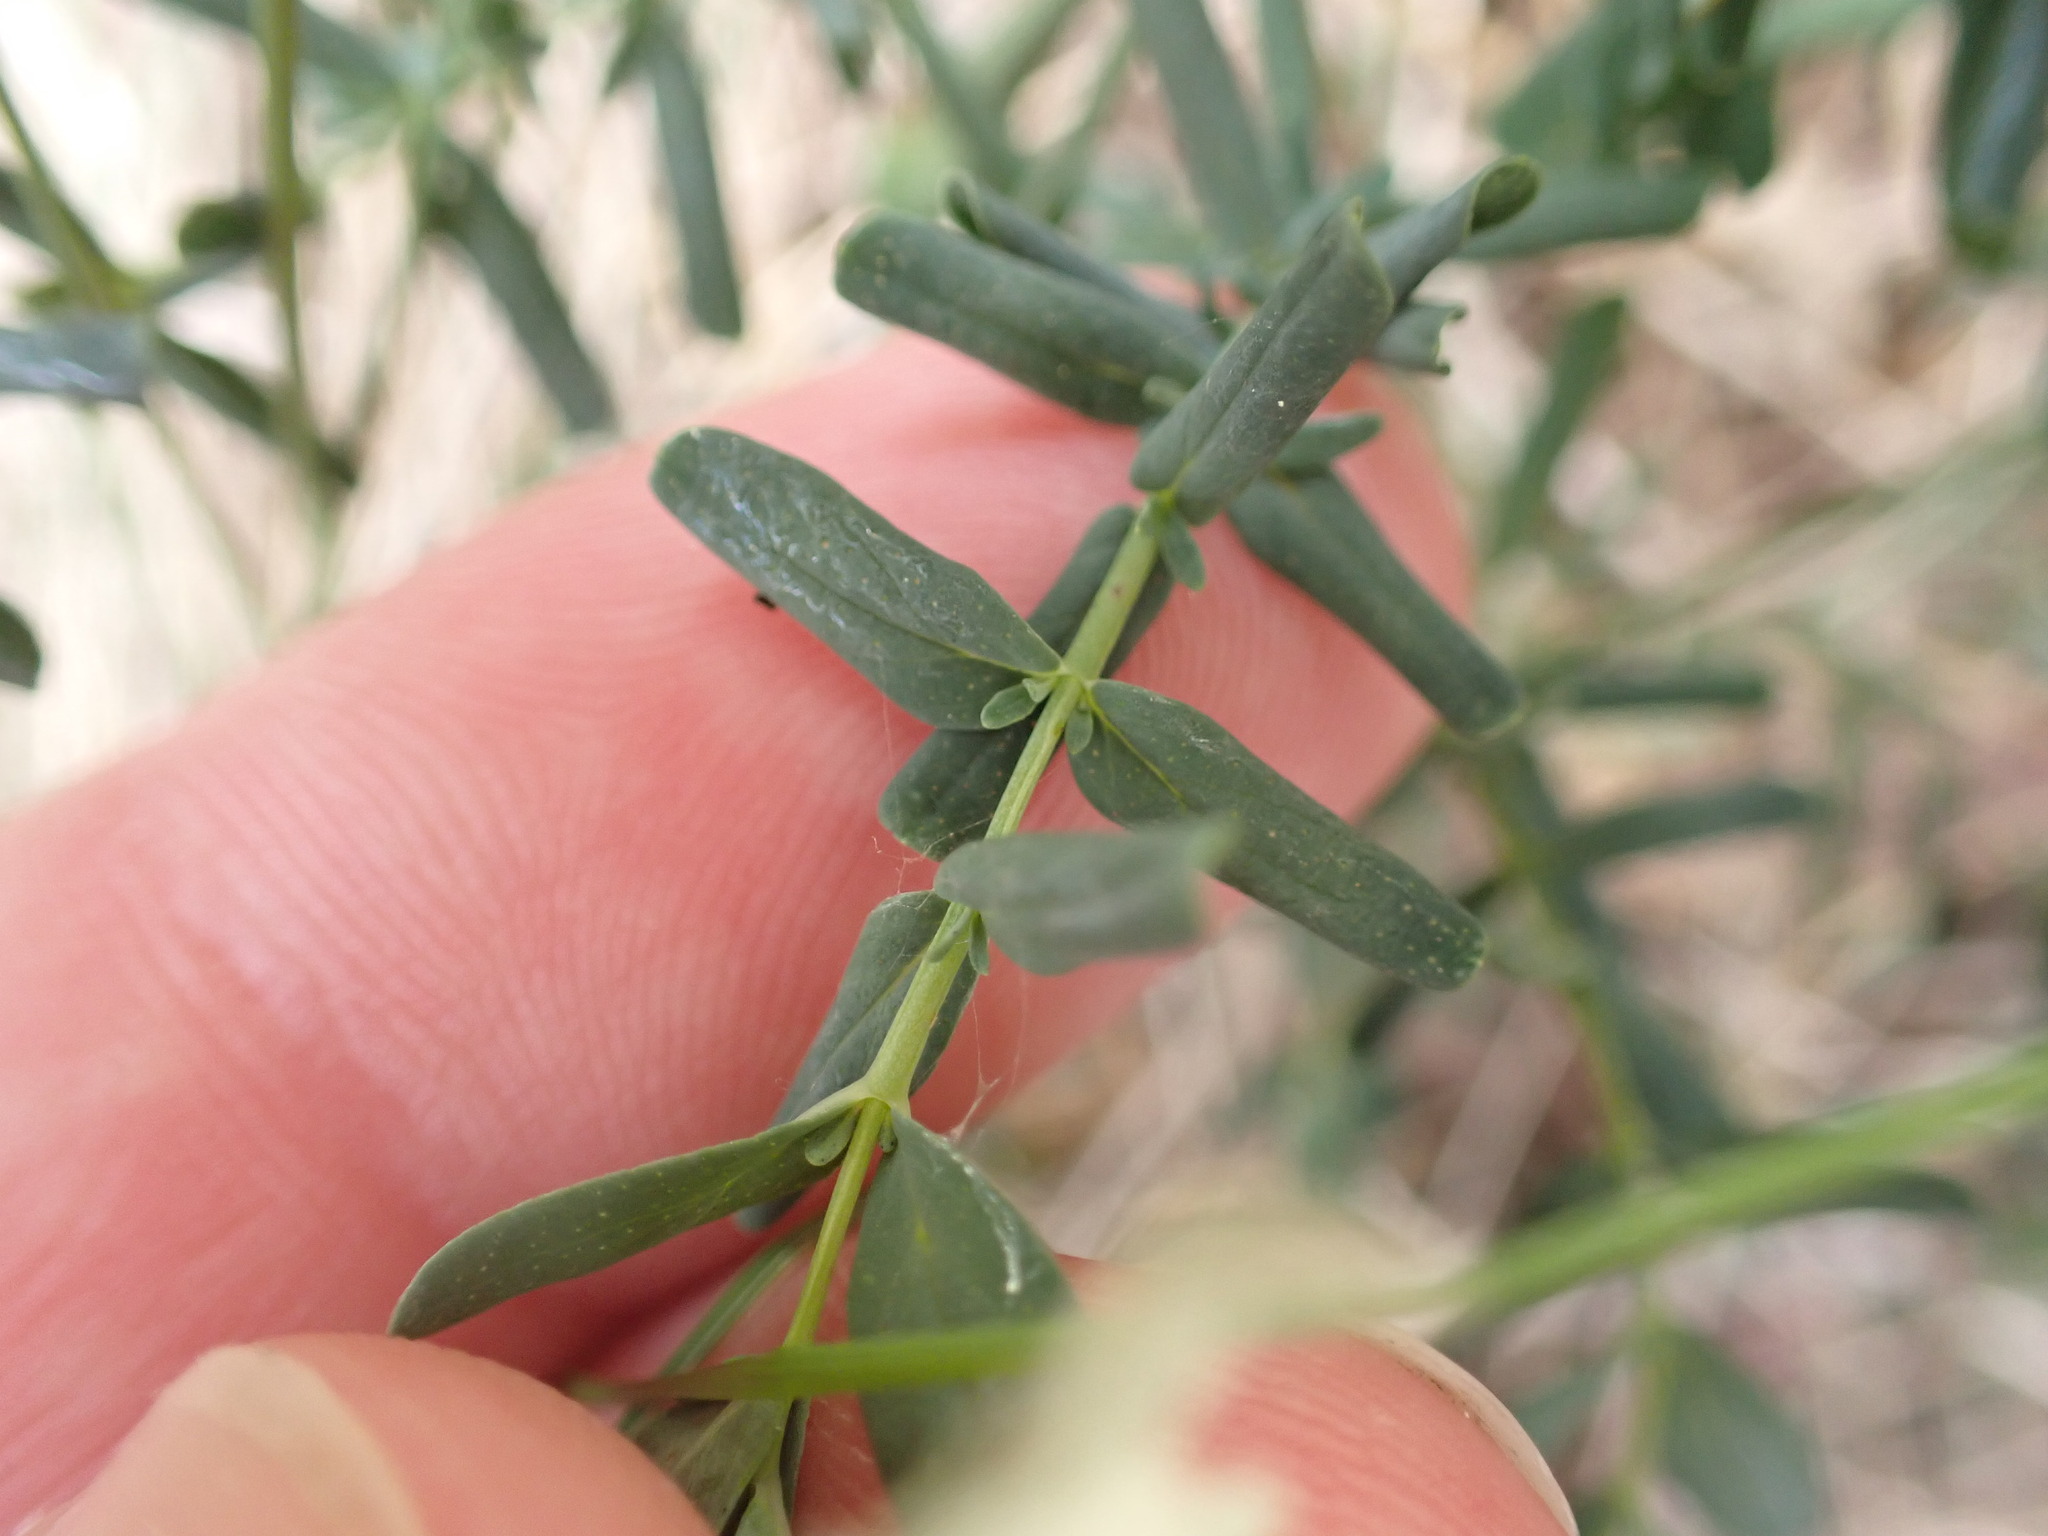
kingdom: Plantae
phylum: Tracheophyta
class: Magnoliopsida
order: Malpighiales
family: Hypericaceae
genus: Hypericum
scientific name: Hypericum perforatum
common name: Common st. johnswort
